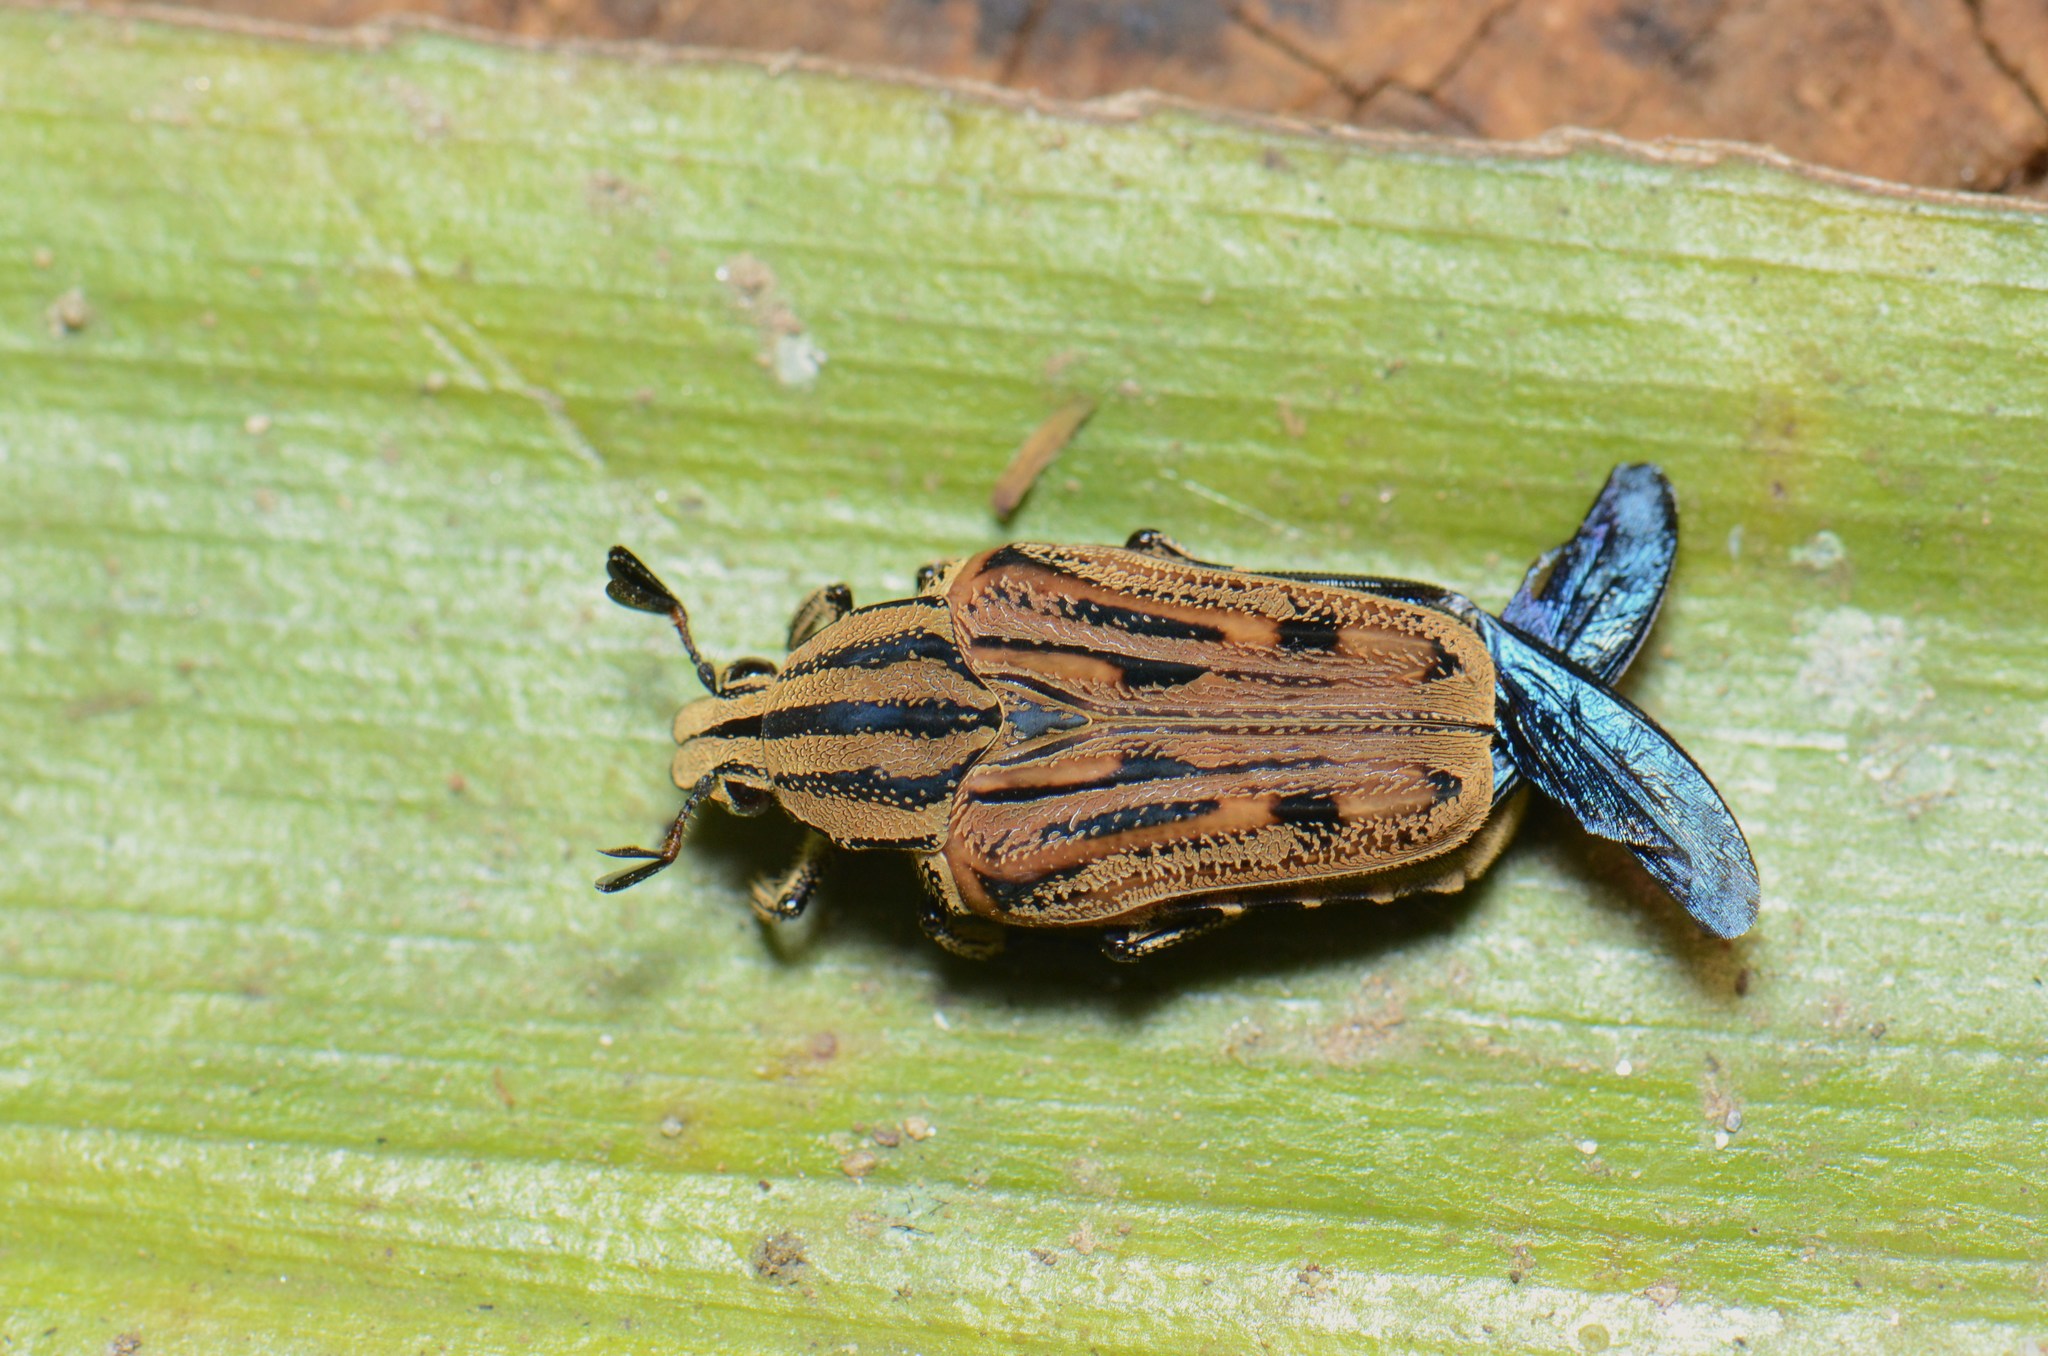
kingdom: Animalia
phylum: Arthropoda
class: Insecta
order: Coleoptera
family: Scarabaeidae
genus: Euselates
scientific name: Euselates cineracea
